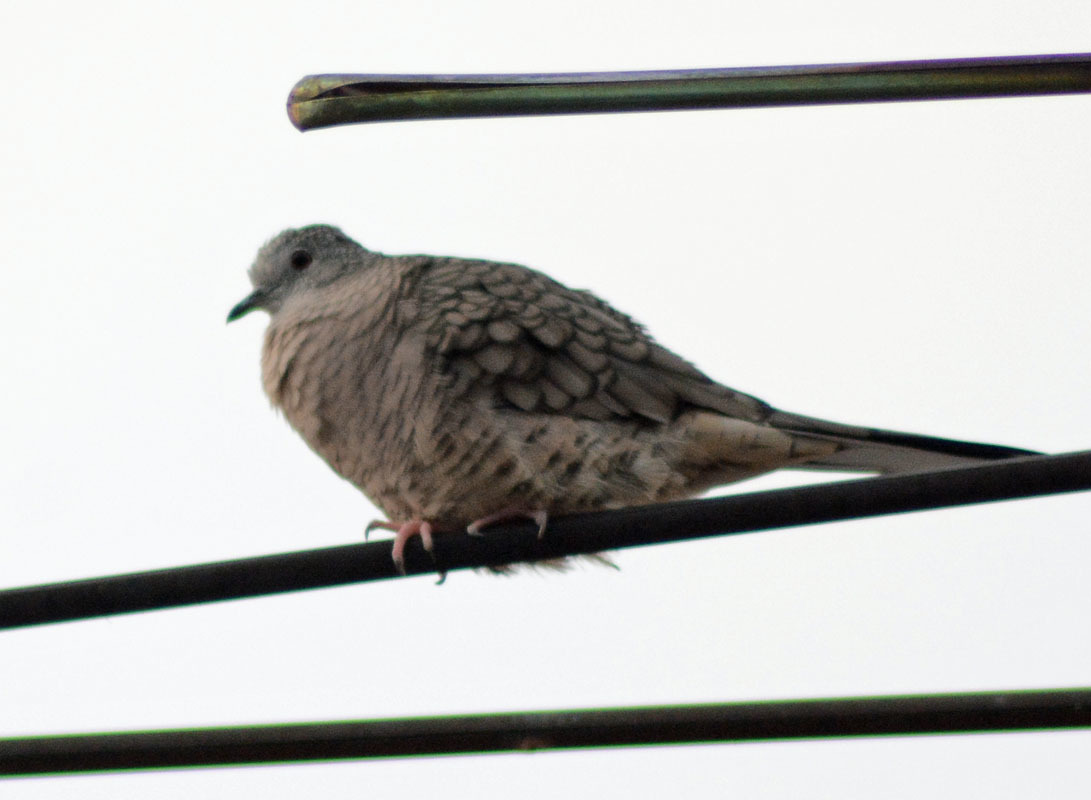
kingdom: Animalia
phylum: Chordata
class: Aves
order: Columbiformes
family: Columbidae
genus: Columbina
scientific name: Columbina inca
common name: Inca dove
